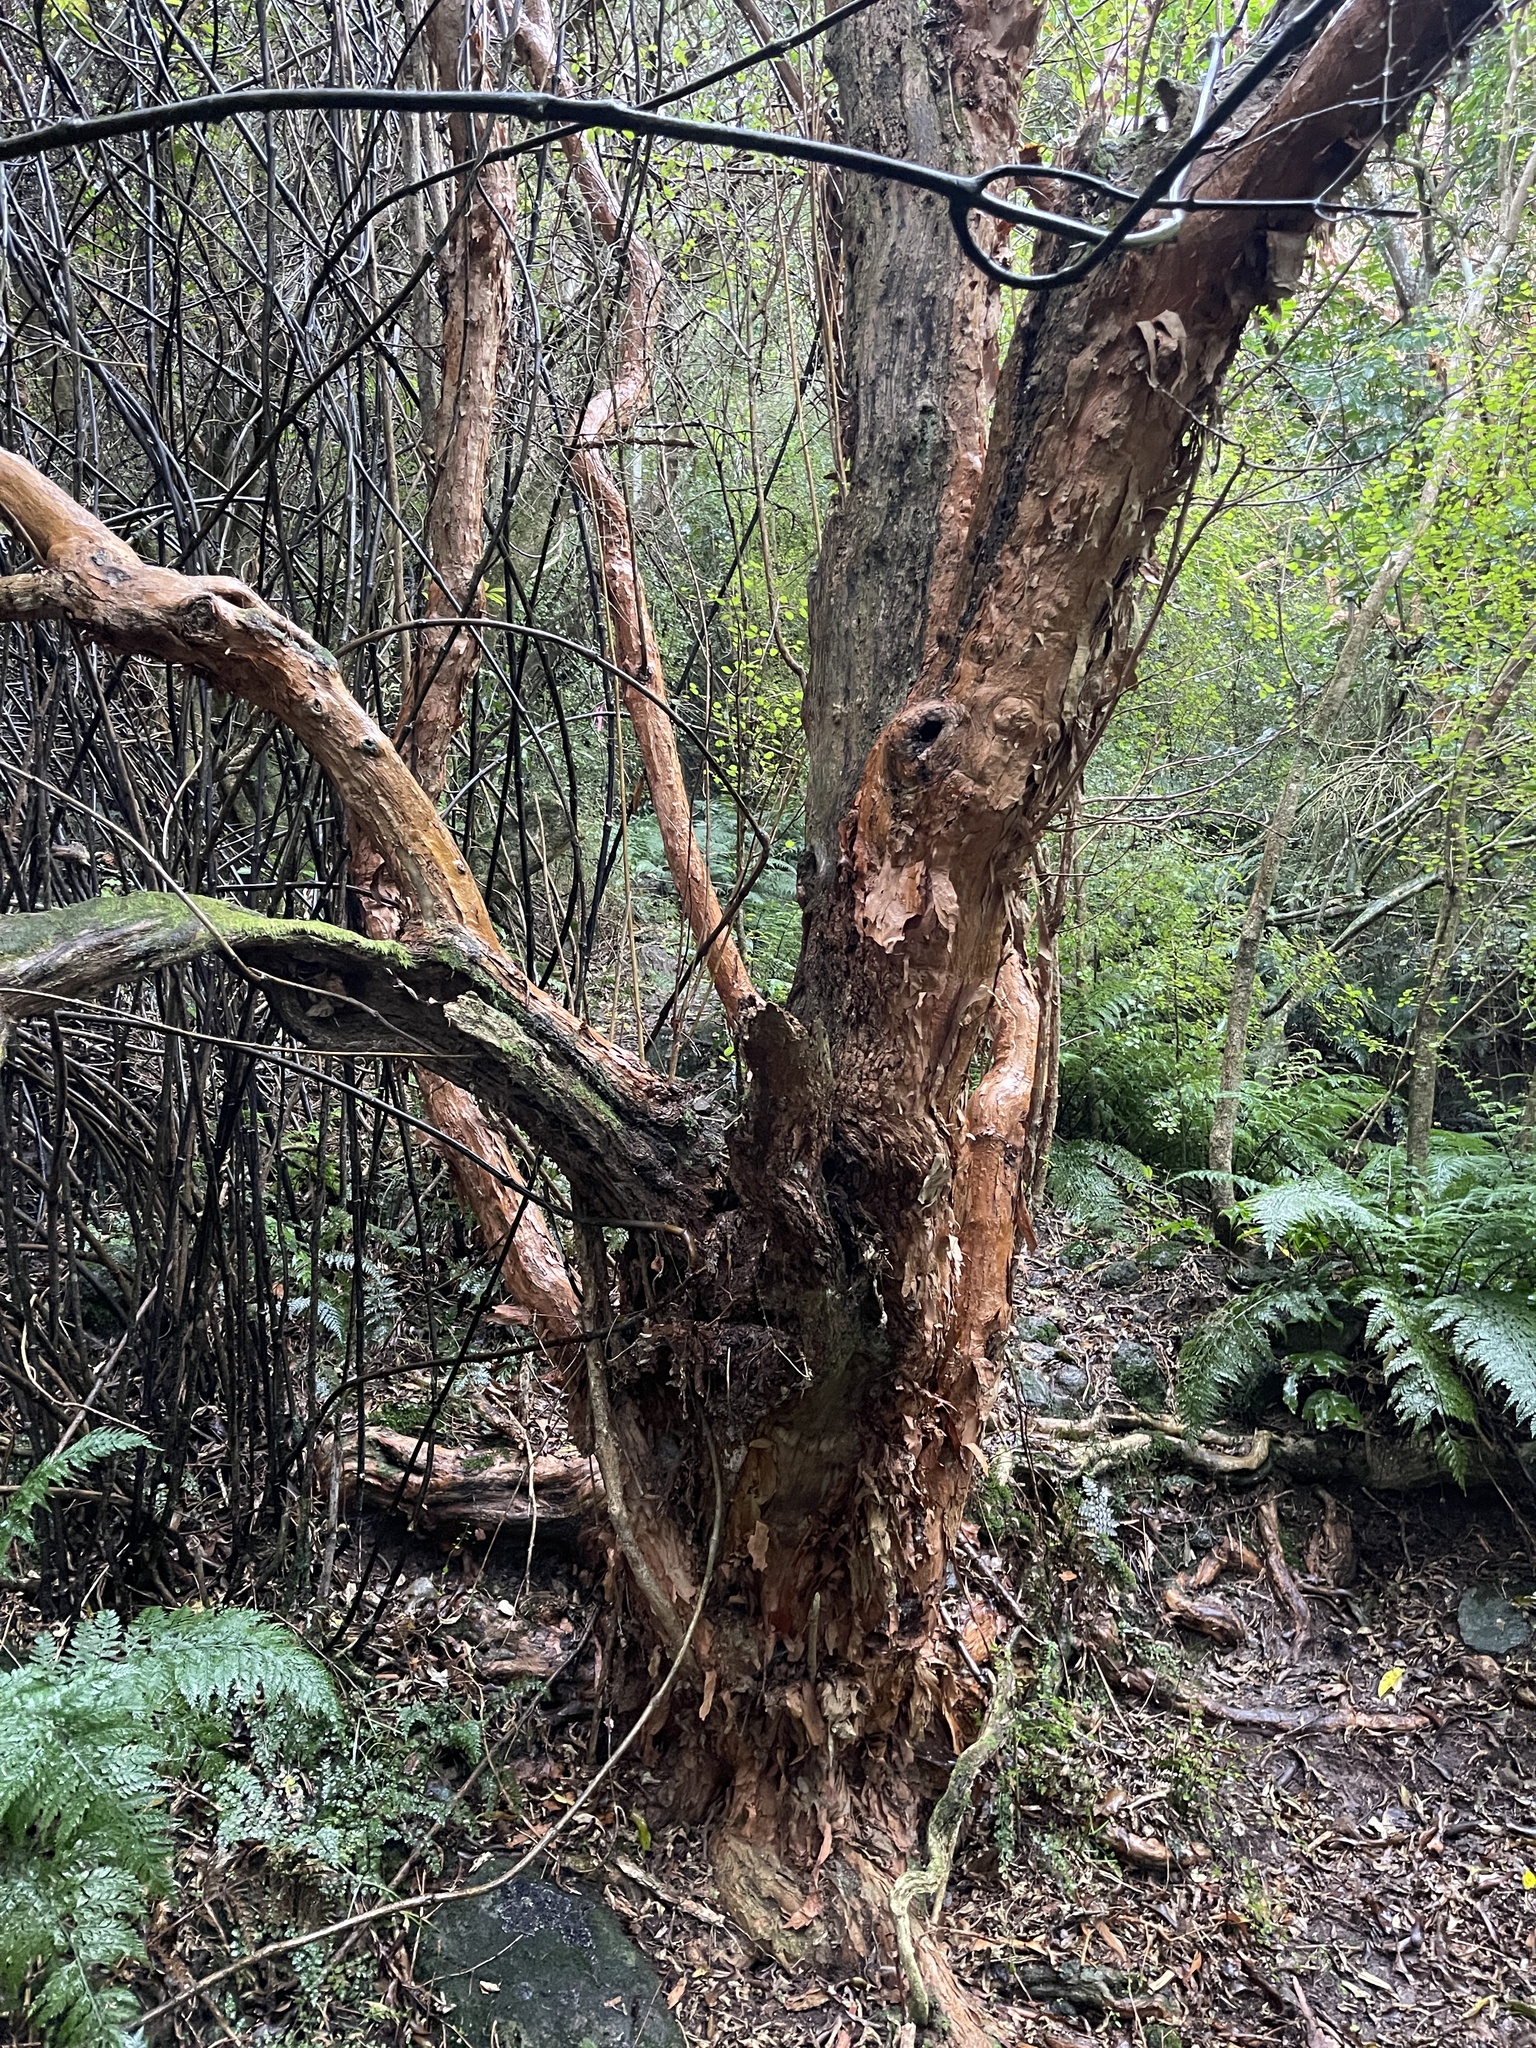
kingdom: Plantae
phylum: Tracheophyta
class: Magnoliopsida
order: Myrtales
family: Onagraceae
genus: Fuchsia
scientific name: Fuchsia excorticata
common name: Tree fuchsia
